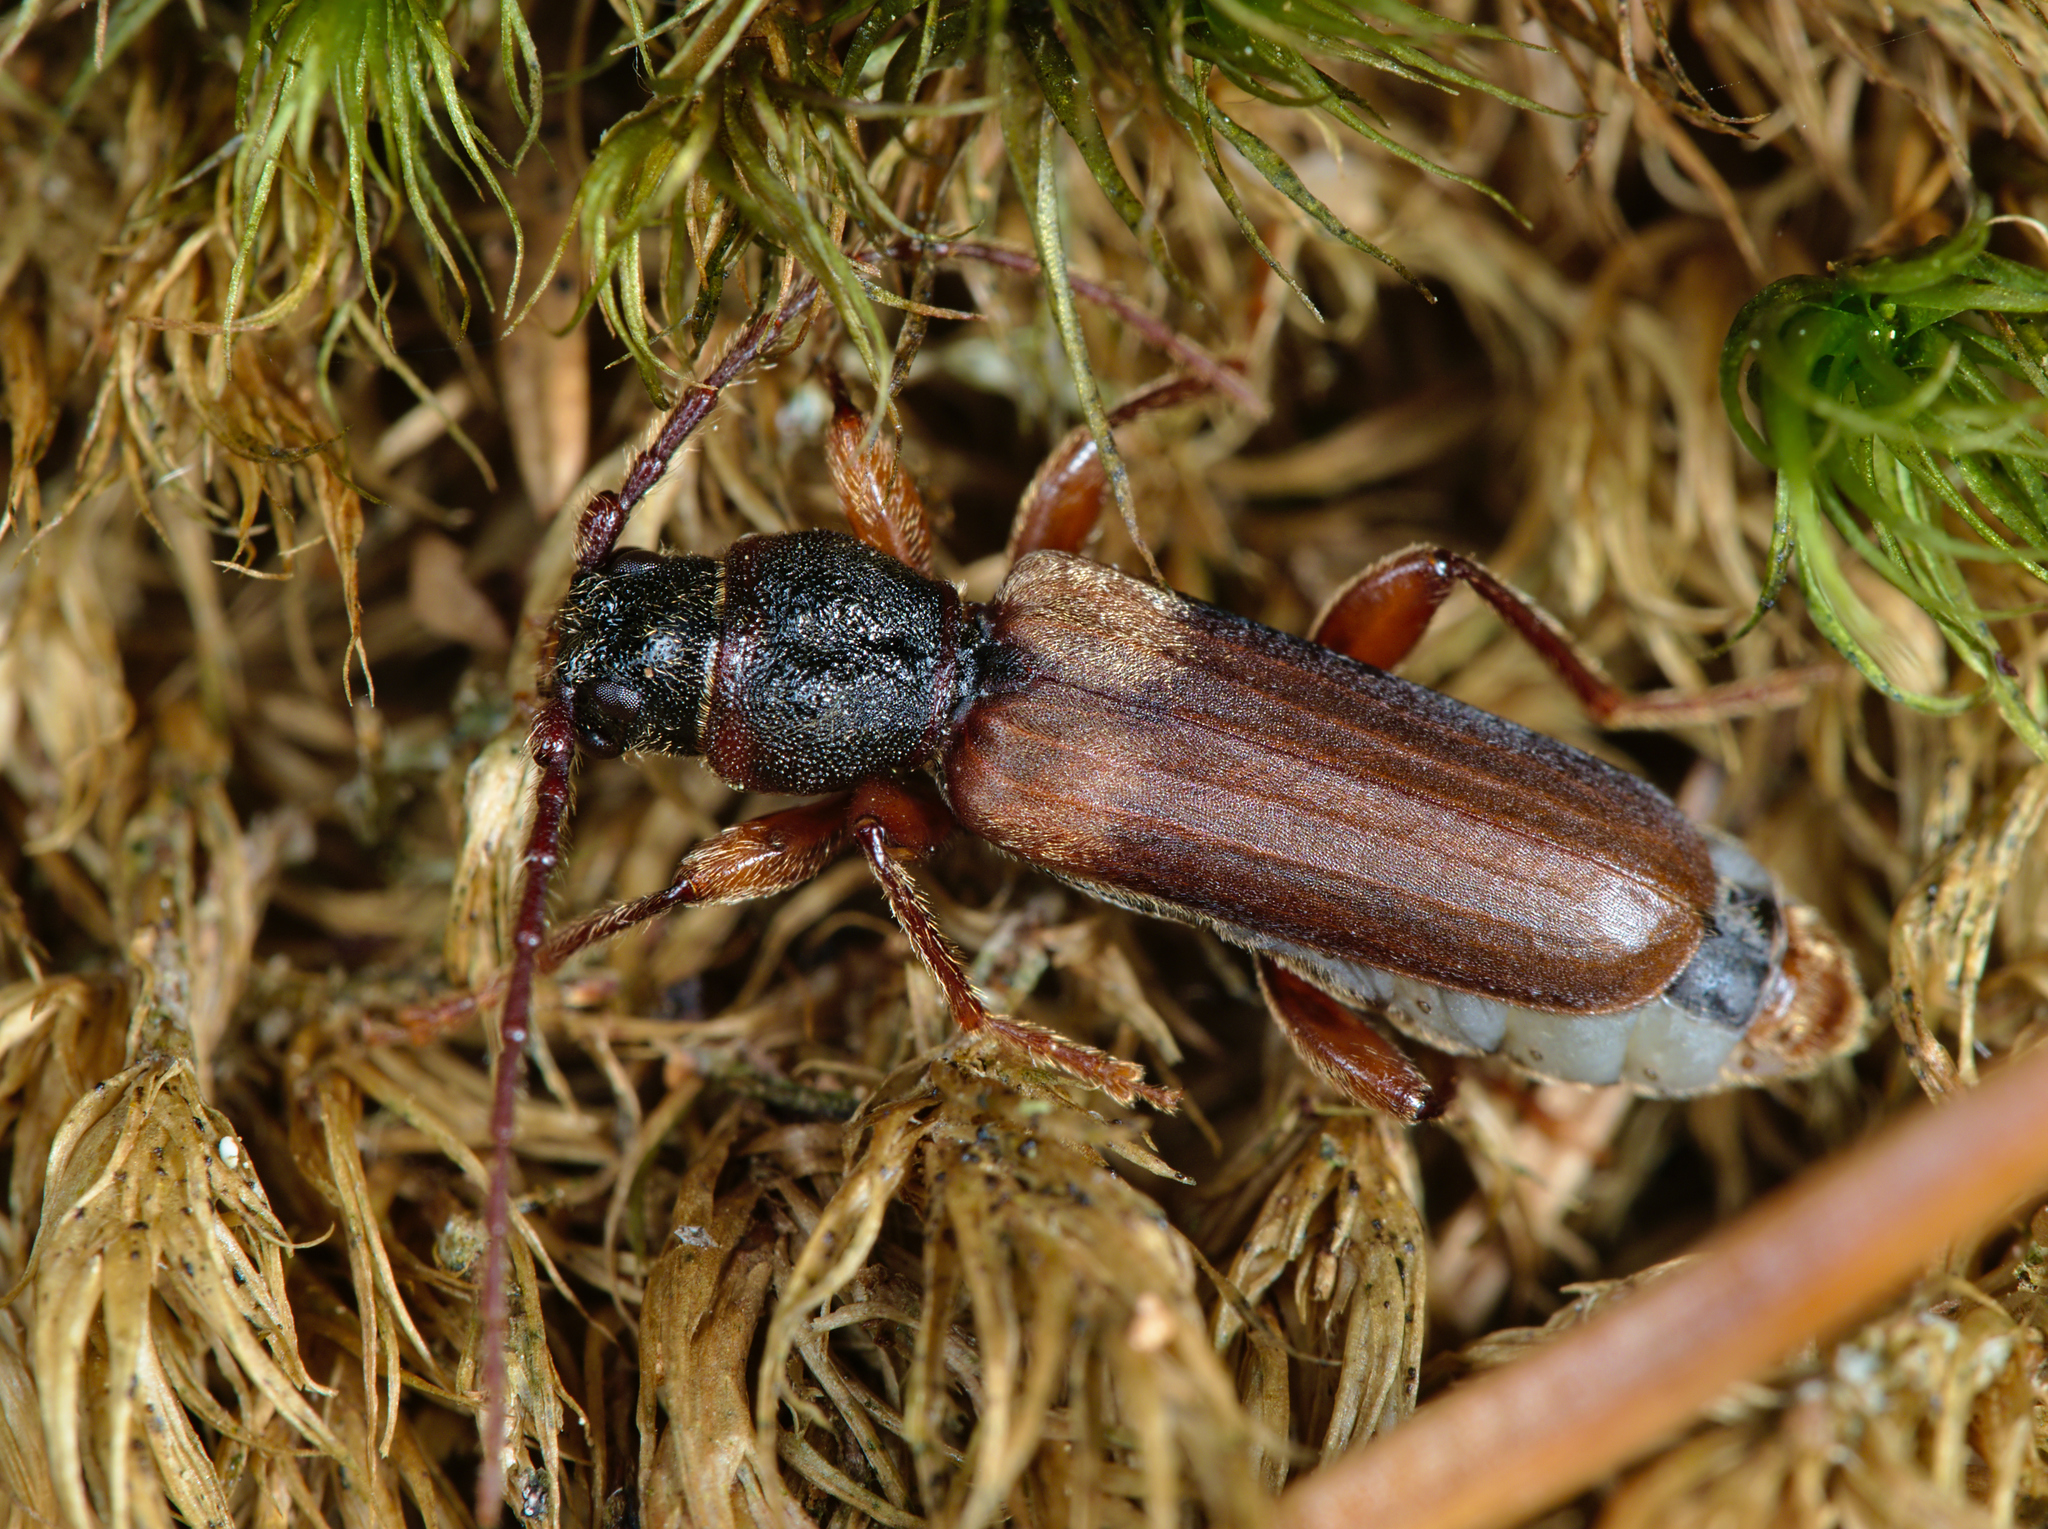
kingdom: Animalia
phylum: Arthropoda
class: Insecta
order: Coleoptera
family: Cerambycidae
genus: Tetropium
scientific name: Tetropium fuscum
